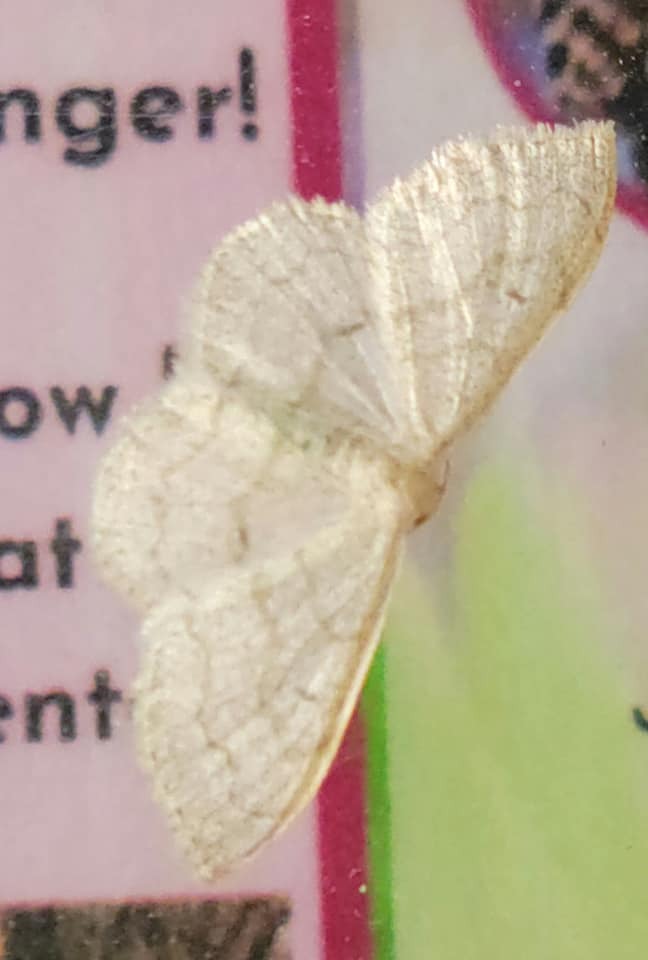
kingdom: Animalia
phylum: Arthropoda
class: Insecta
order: Lepidoptera
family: Geometridae
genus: Acratodes
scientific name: Acratodes suavata
